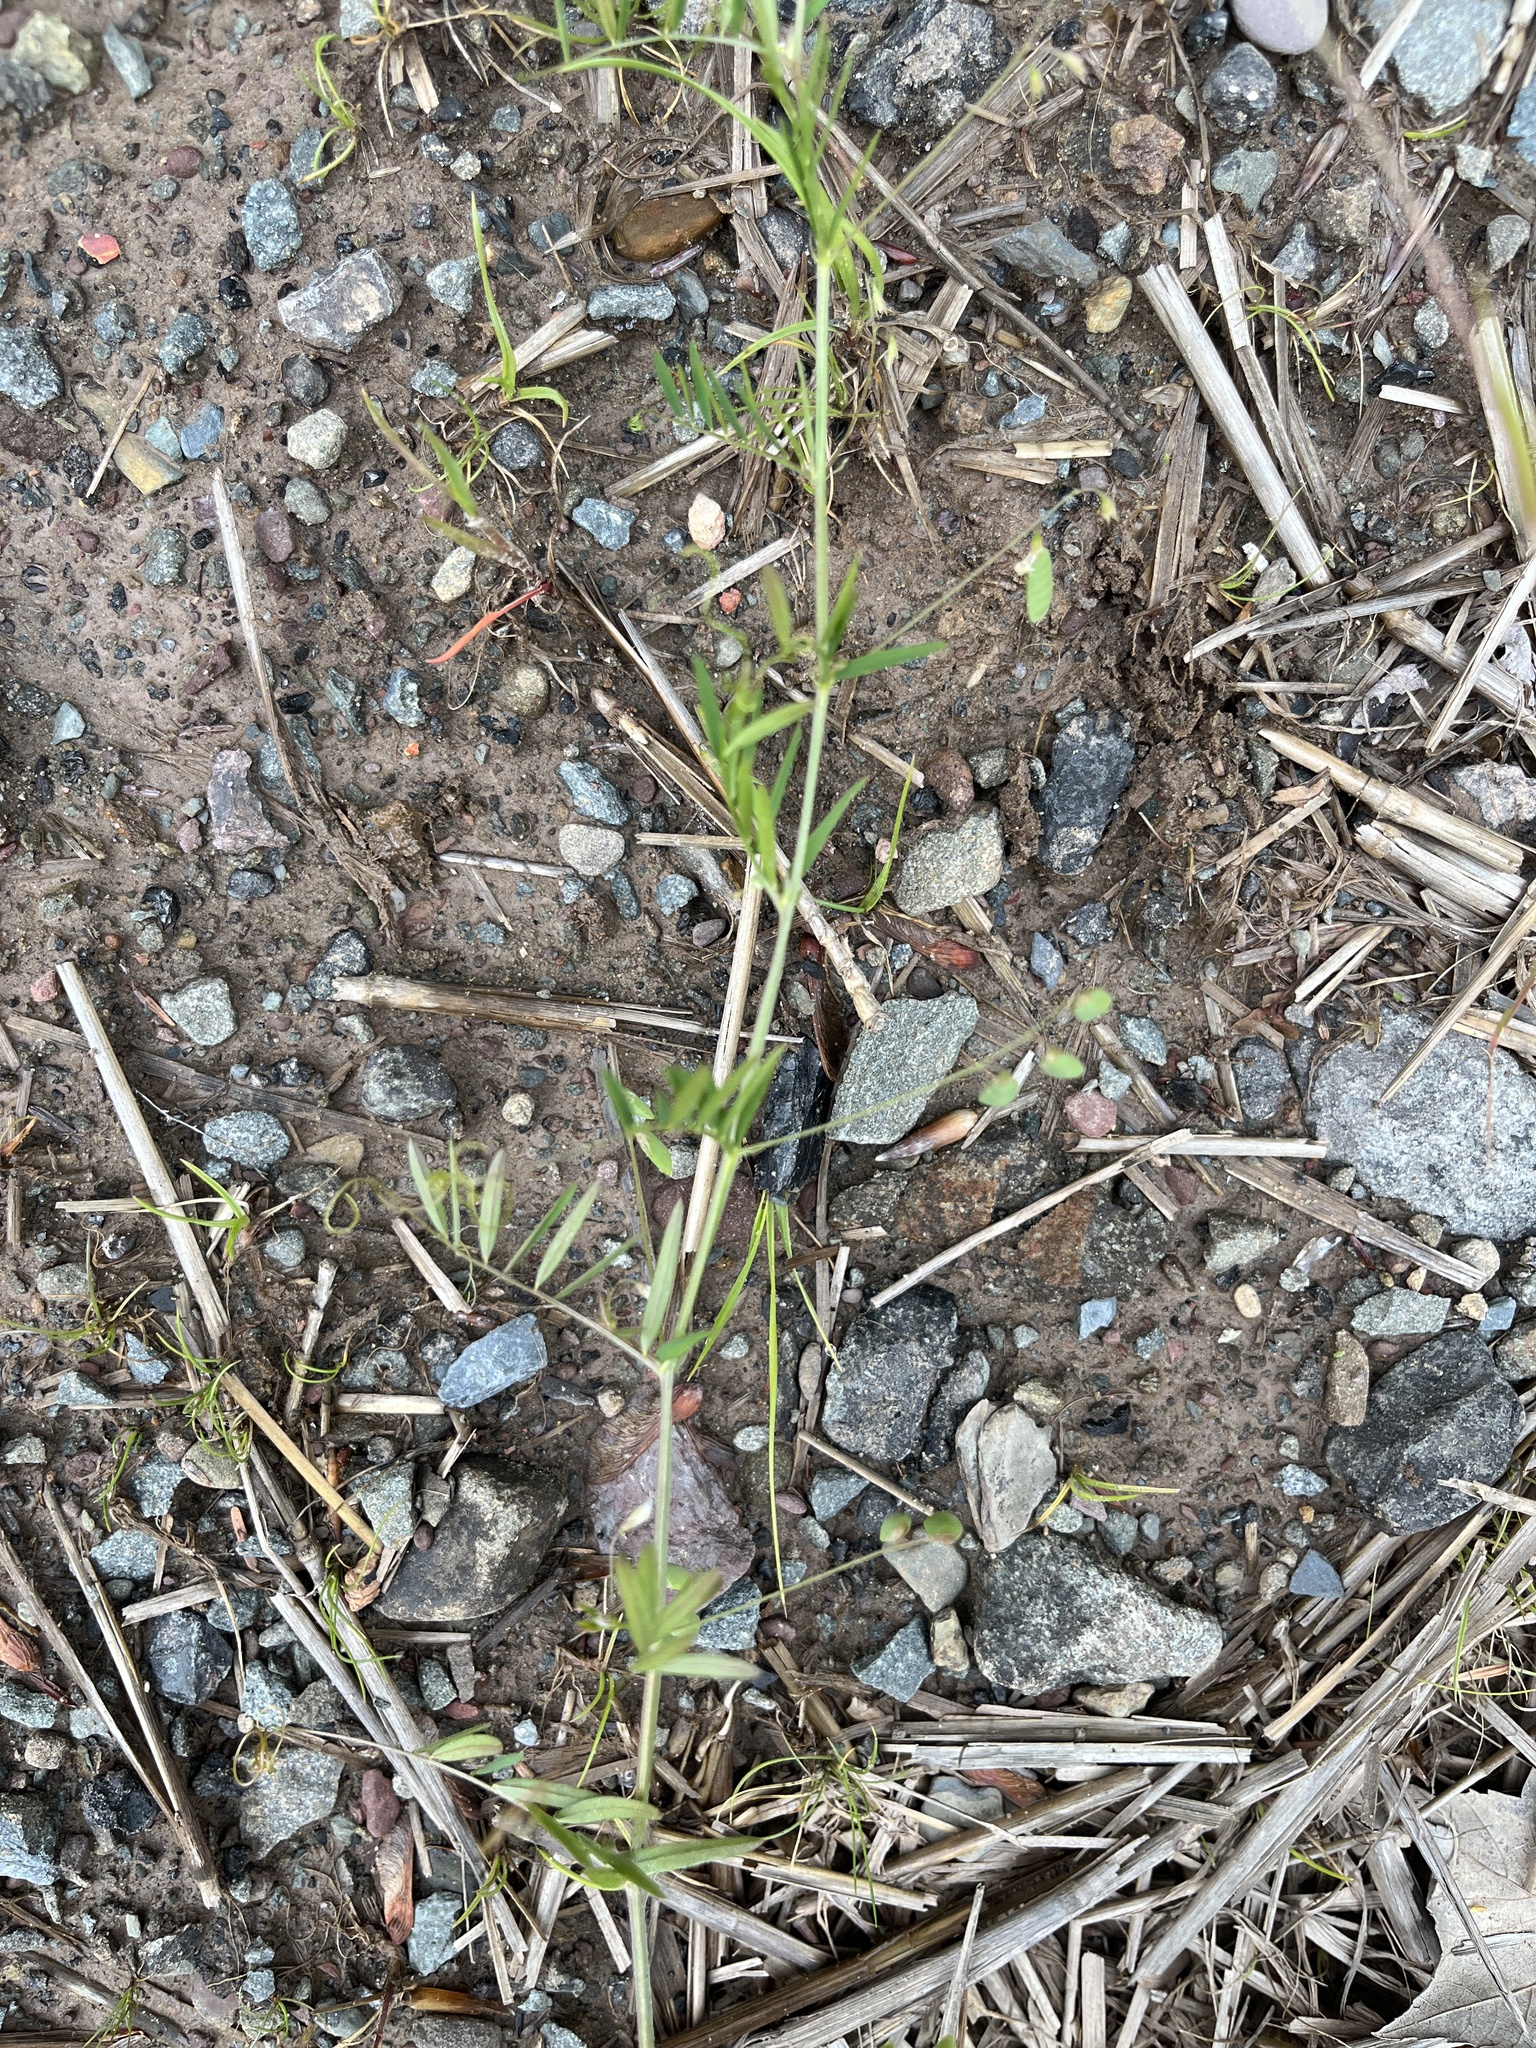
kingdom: Plantae
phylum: Tracheophyta
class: Magnoliopsida
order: Fabales
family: Fabaceae
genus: Vicia
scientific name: Vicia tetrasperma
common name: Smooth tare
